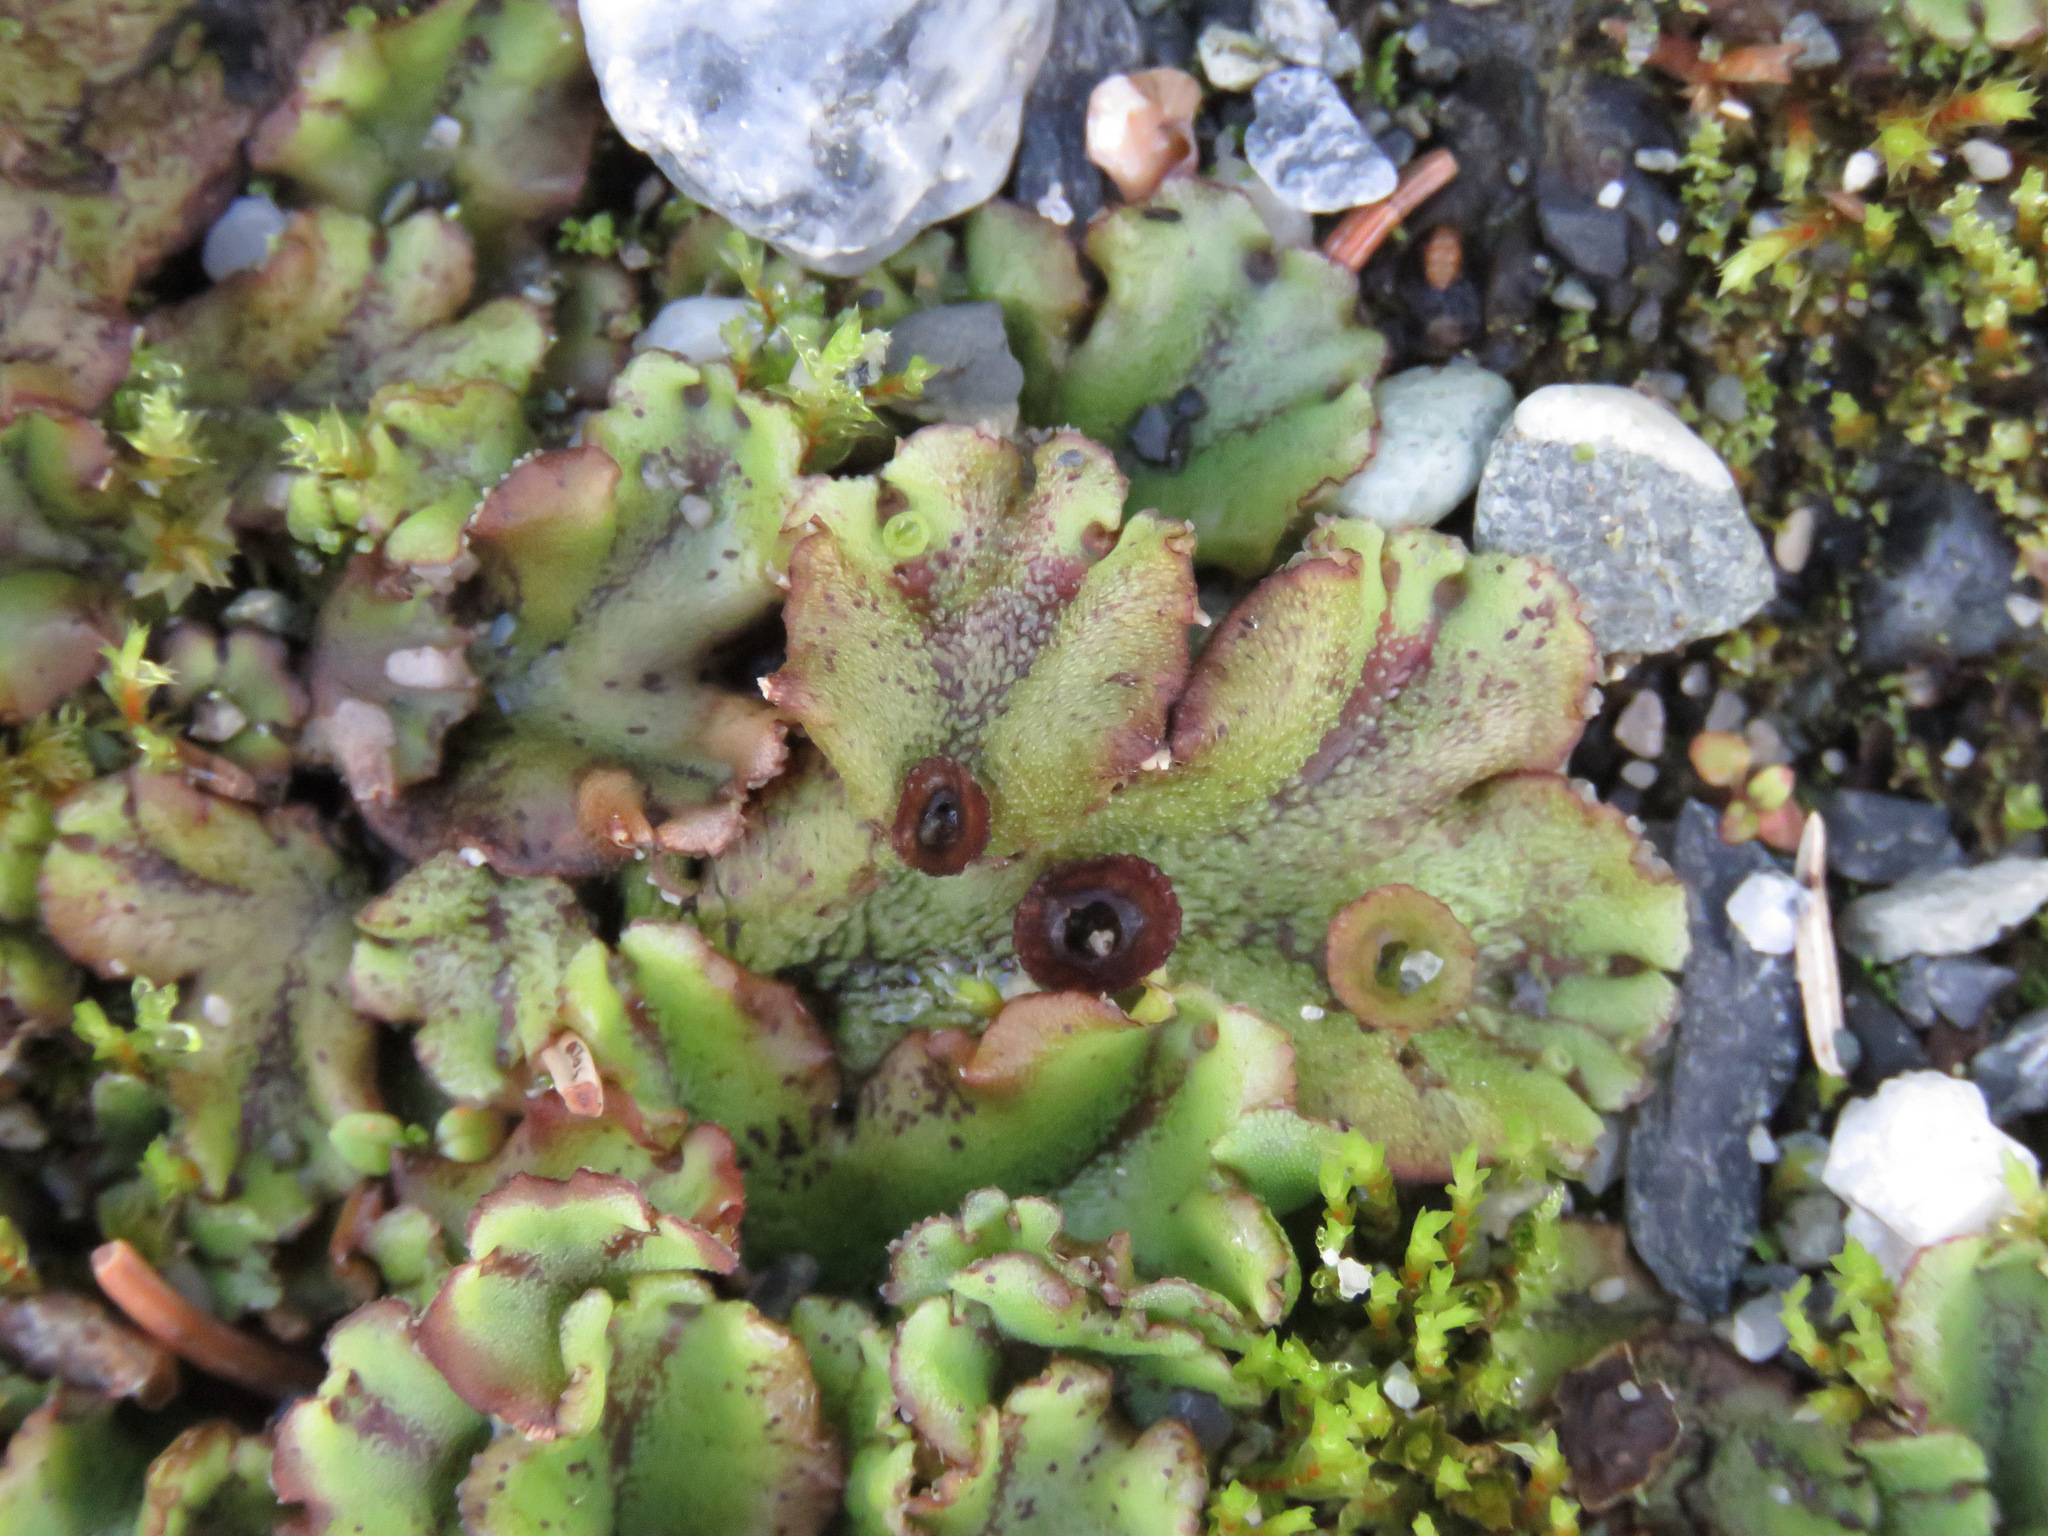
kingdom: Plantae
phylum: Marchantiophyta
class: Marchantiopsida
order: Marchantiales
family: Marchantiaceae
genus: Marchantia
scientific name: Marchantia polymorpha
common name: Common liverwort
